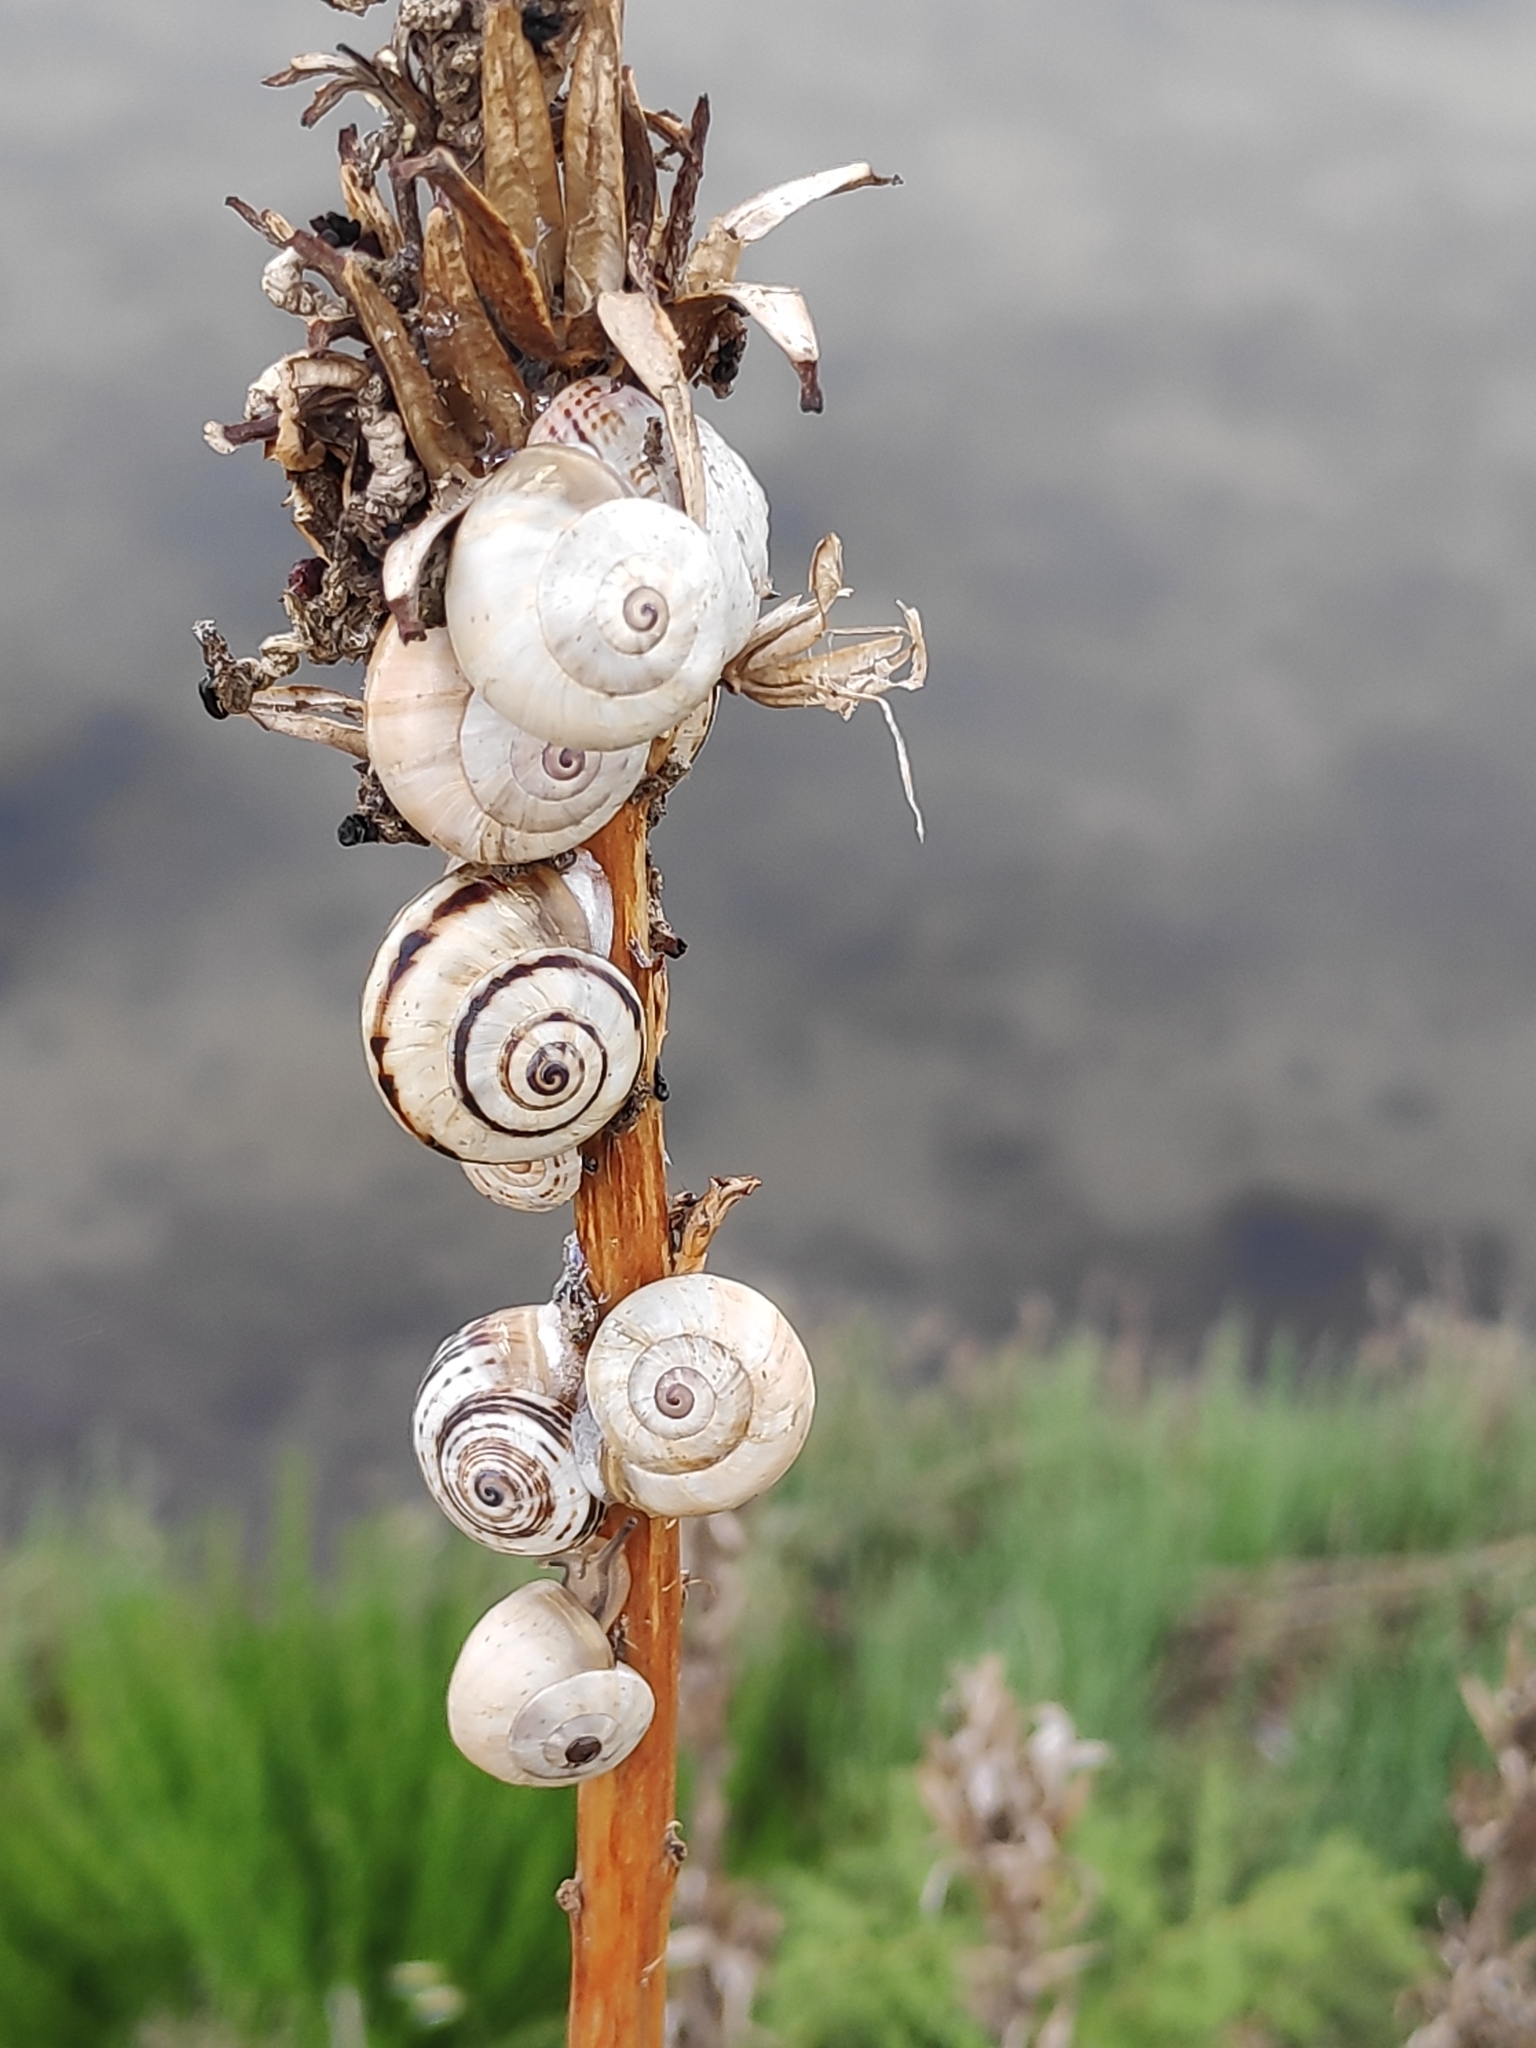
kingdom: Animalia
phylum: Mollusca
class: Gastropoda
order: Stylommatophora
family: Helicidae
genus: Theba
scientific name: Theba pisana
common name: White snail
